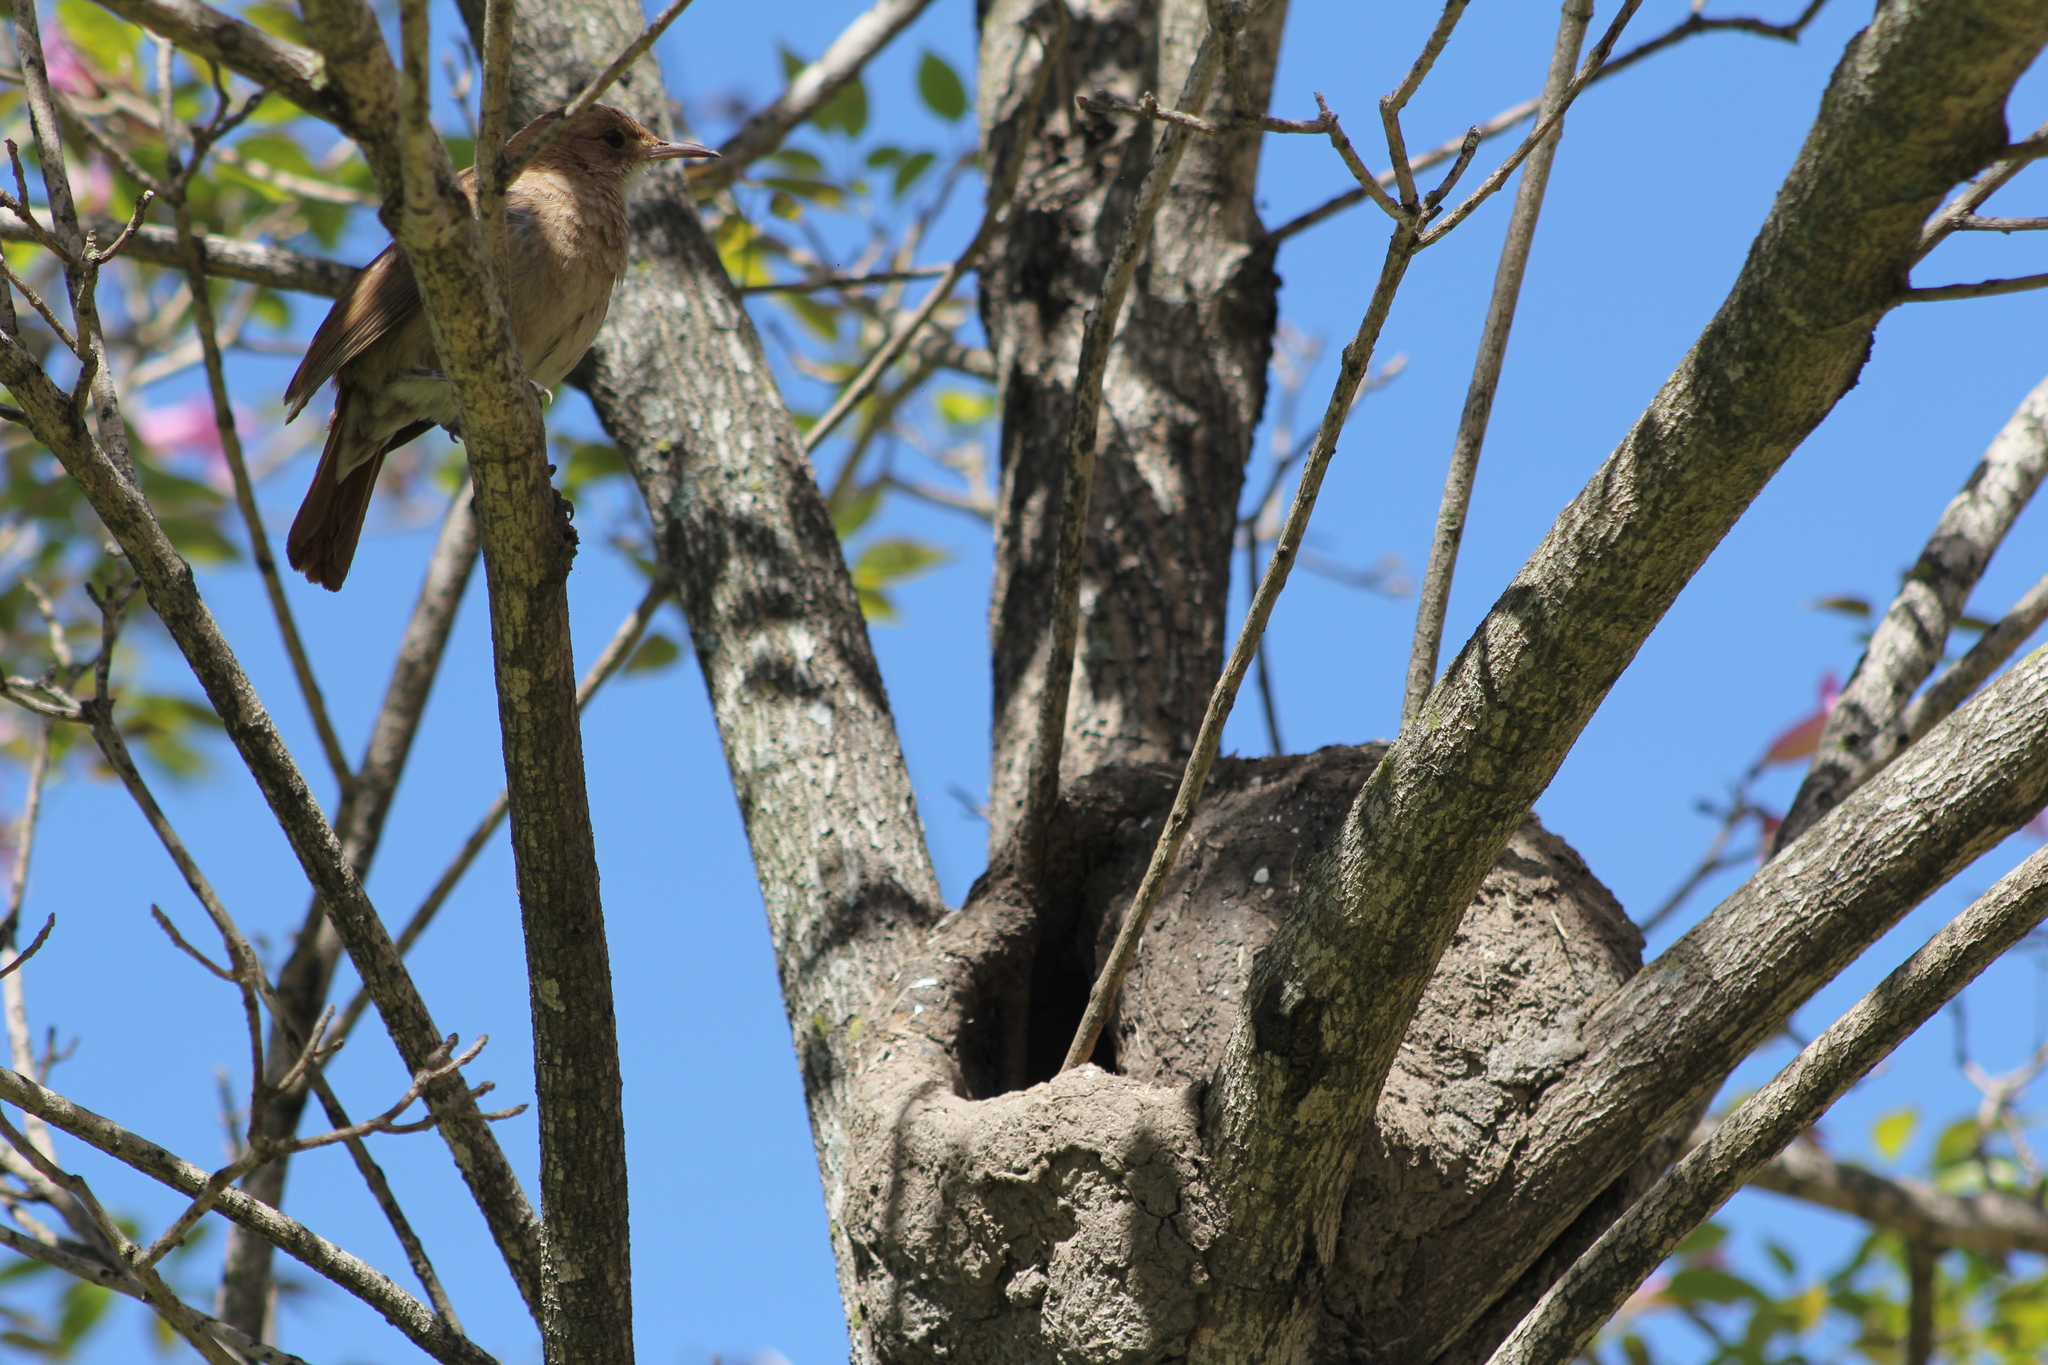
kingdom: Animalia
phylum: Chordata
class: Aves
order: Passeriformes
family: Furnariidae
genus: Furnarius
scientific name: Furnarius rufus
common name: Rufous hornero
